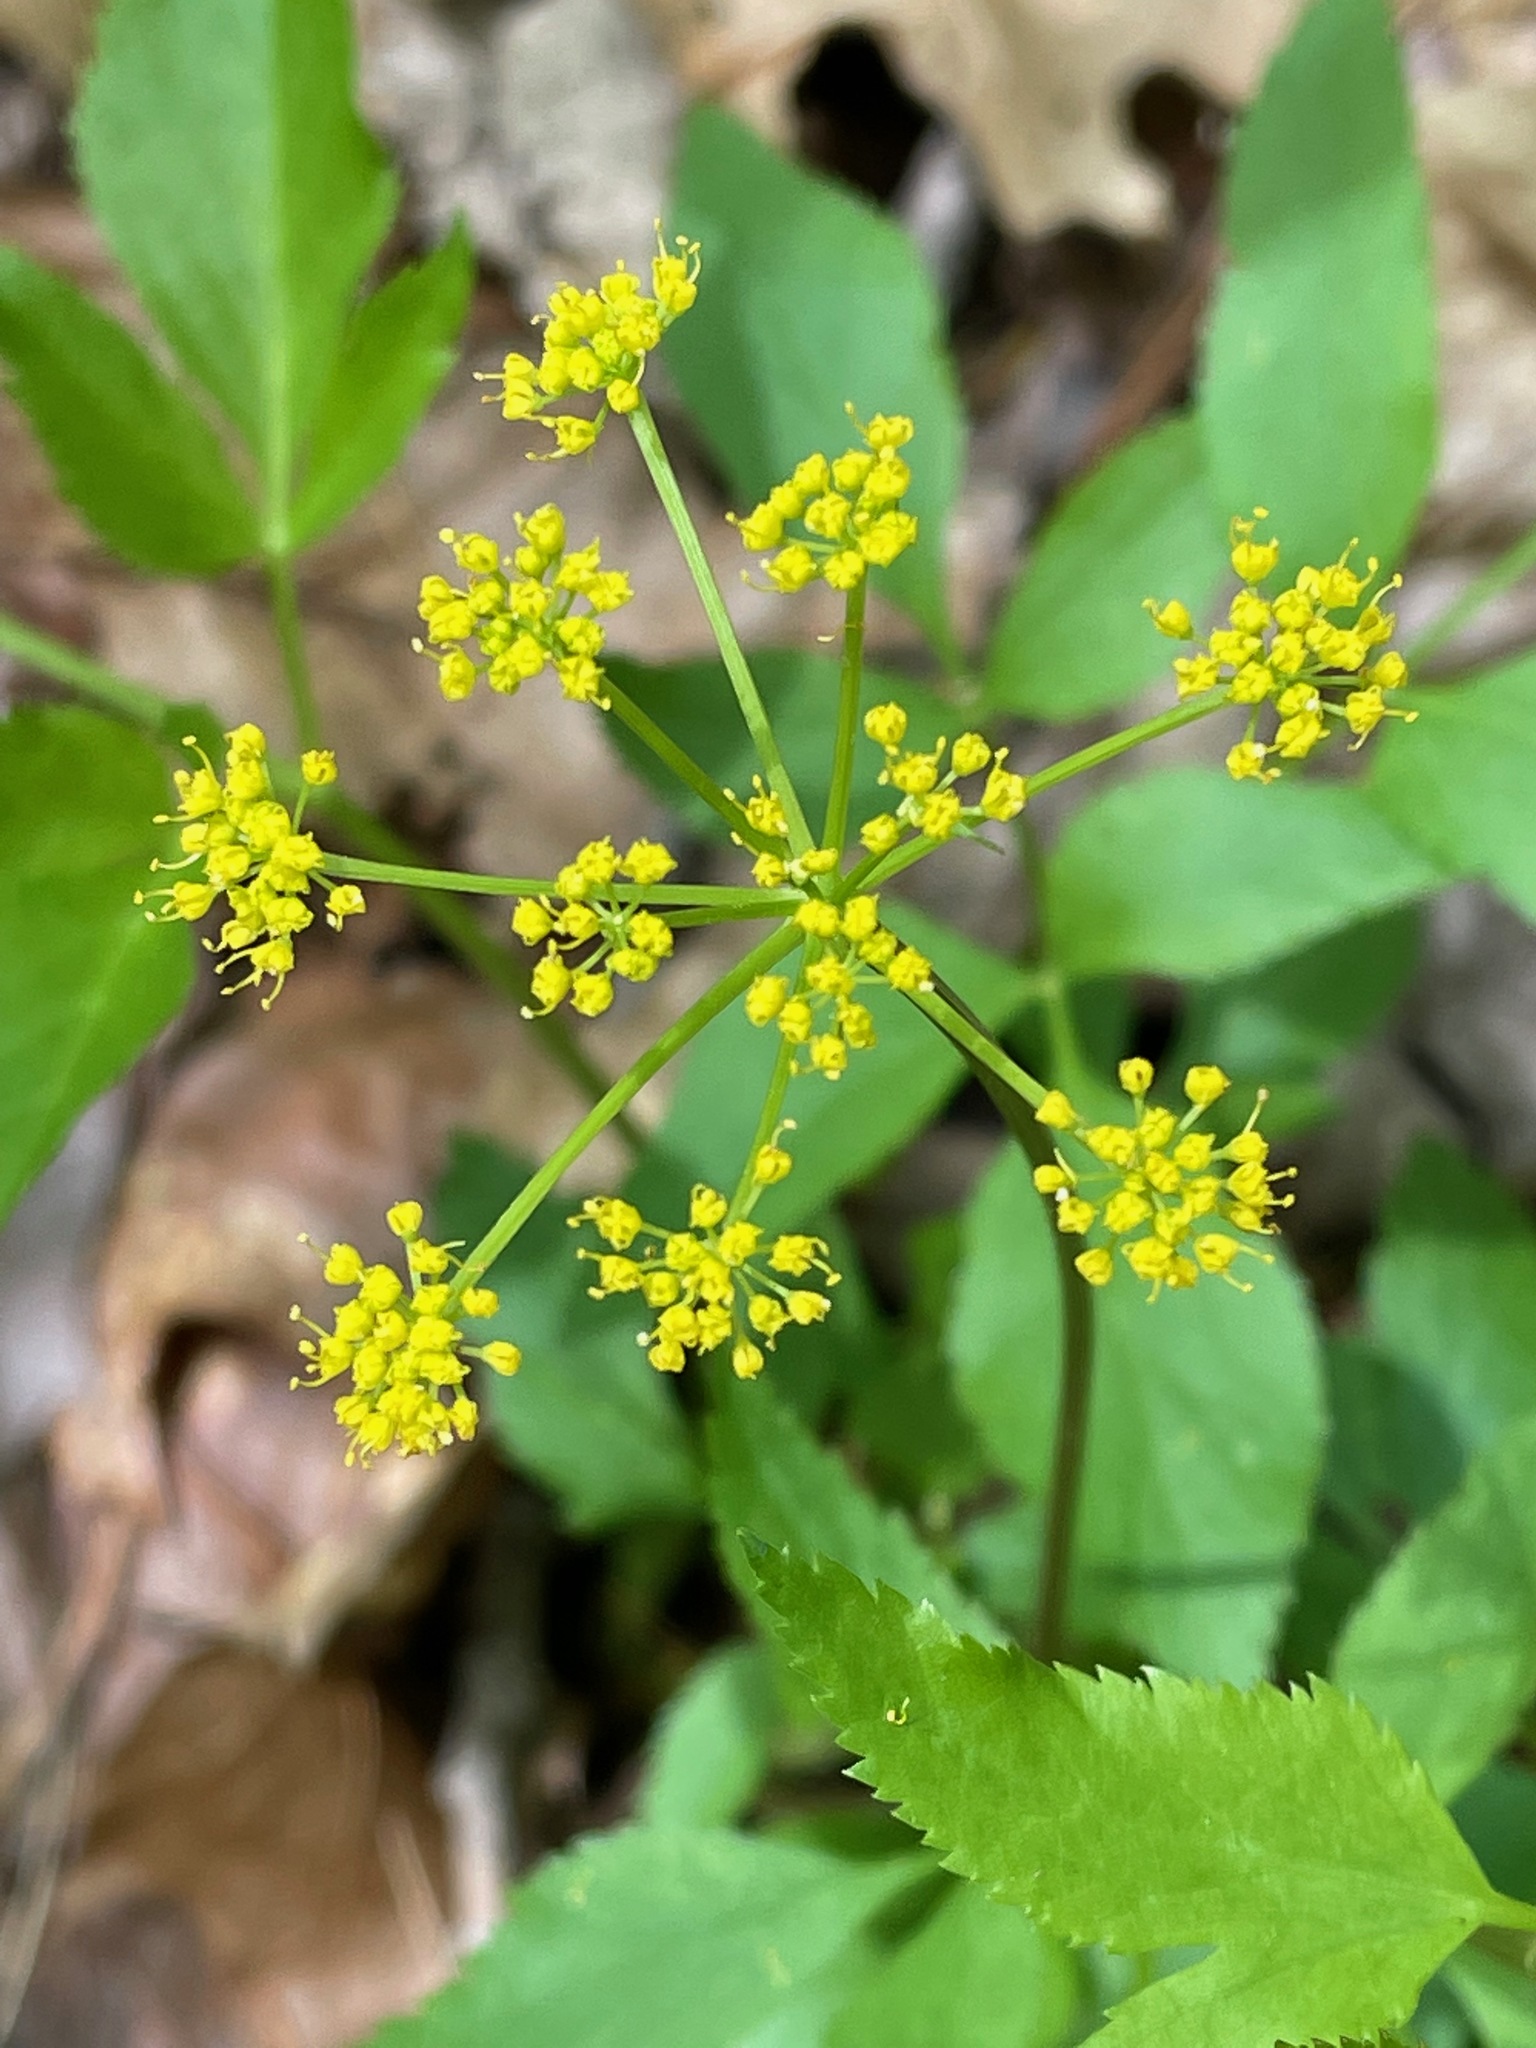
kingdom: Plantae
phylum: Tracheophyta
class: Magnoliopsida
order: Apiales
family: Apiaceae
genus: Zizia
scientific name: Zizia aurea
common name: Golden alexanders
